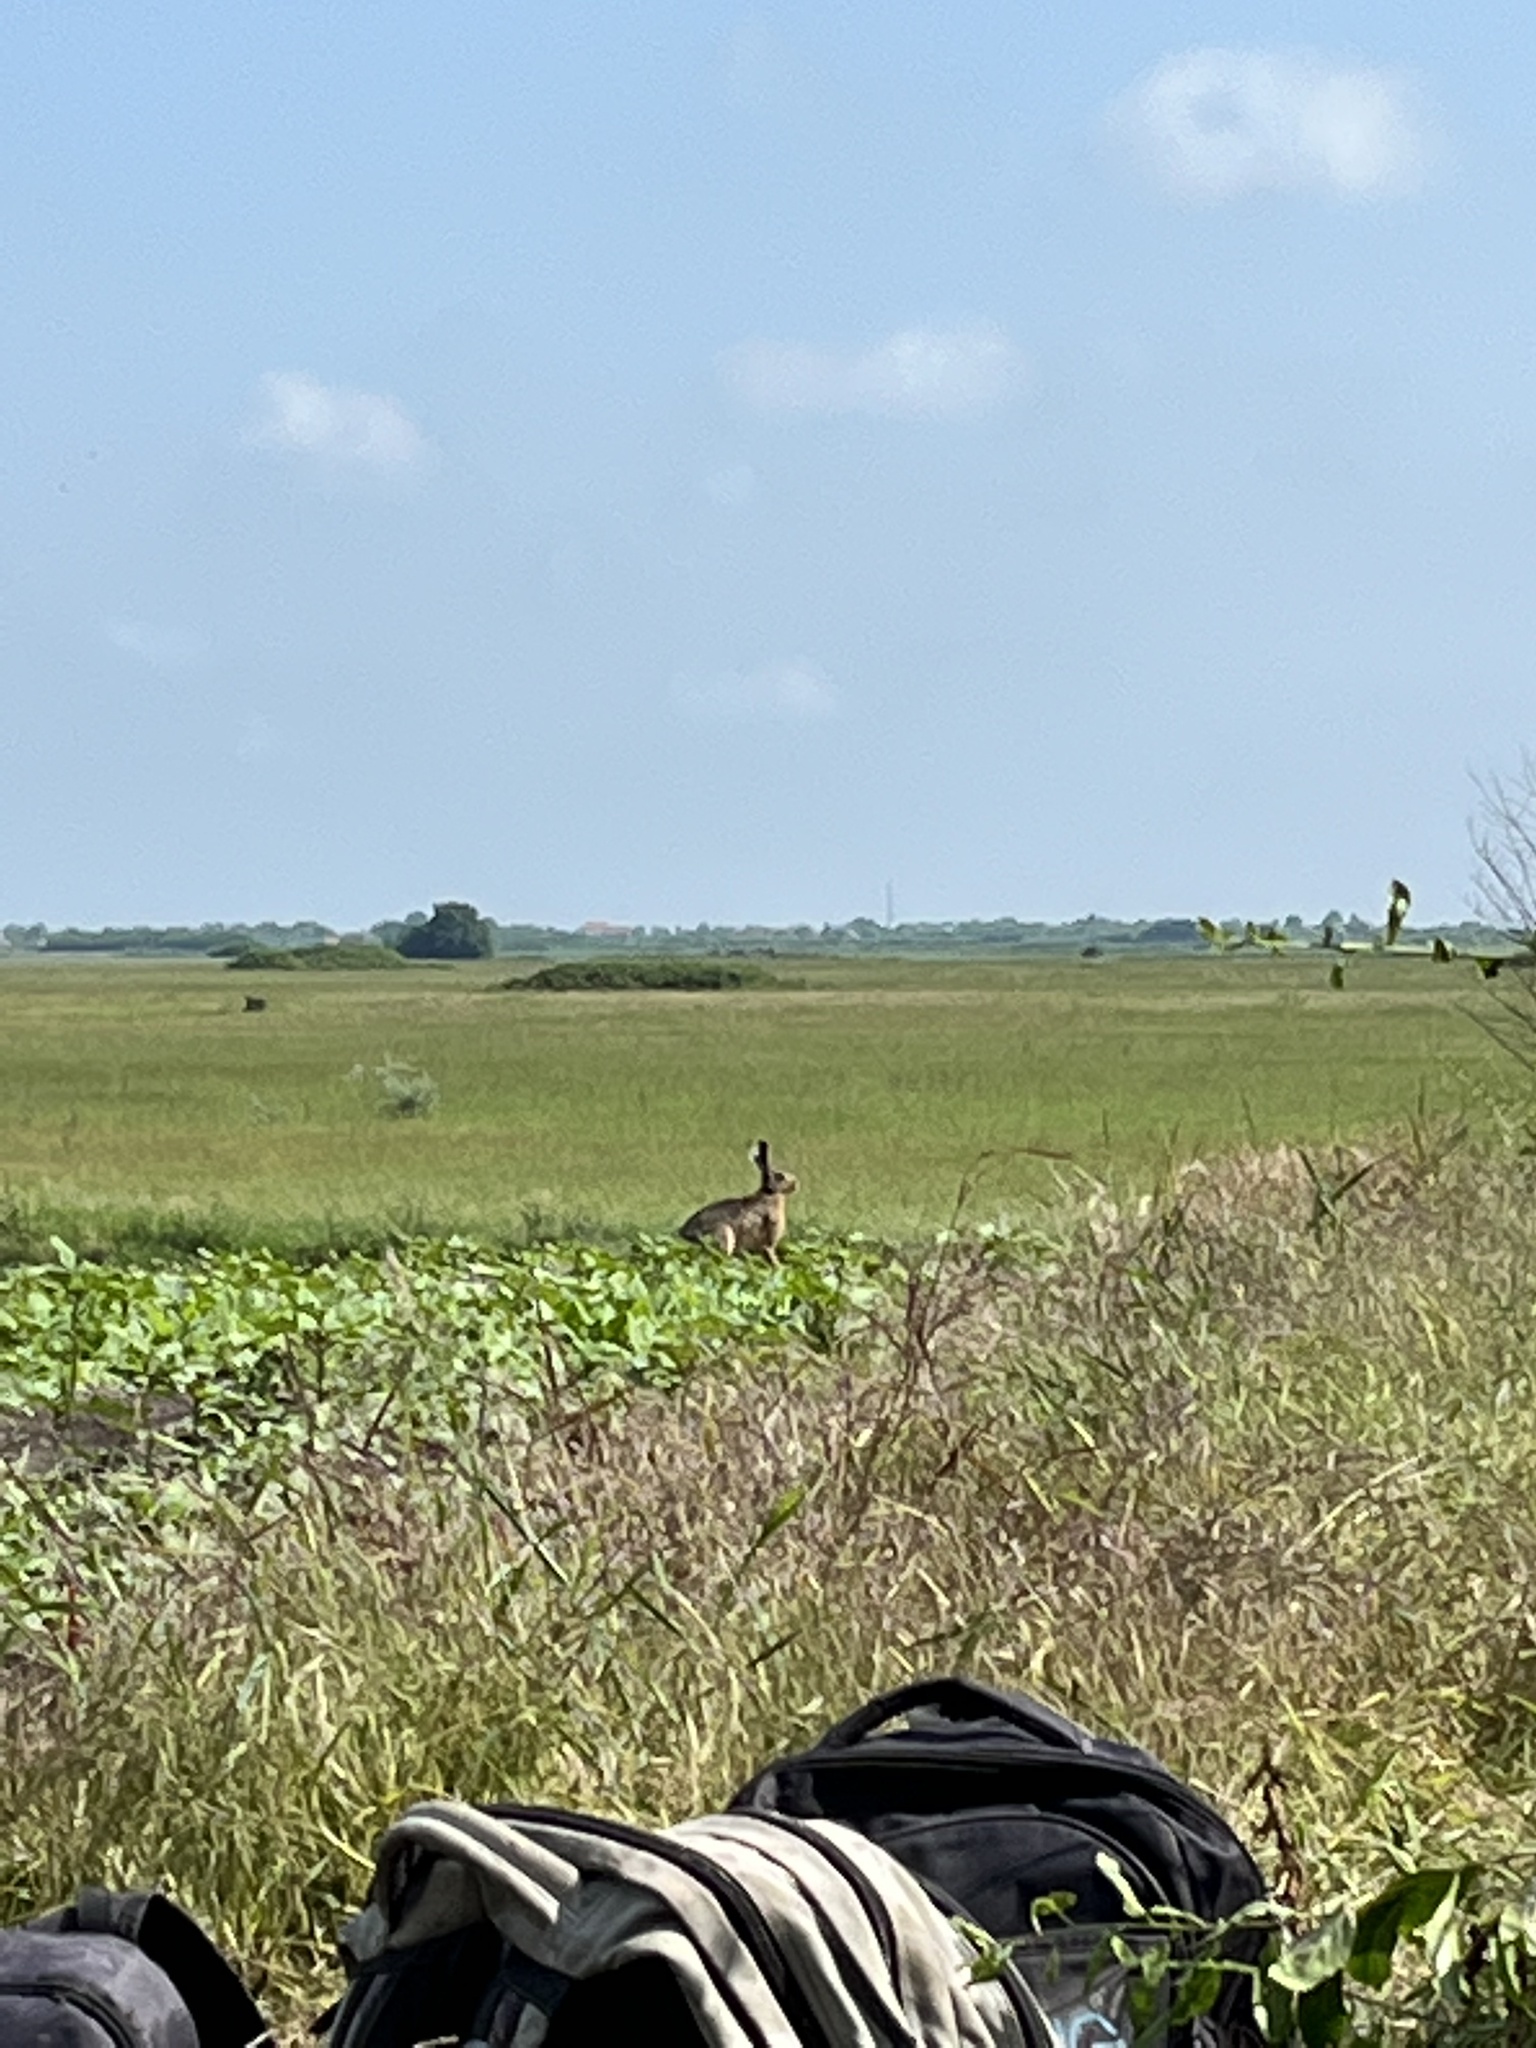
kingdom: Animalia
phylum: Chordata
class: Mammalia
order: Lagomorpha
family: Leporidae
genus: Lepus
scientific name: Lepus europaeus
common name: European hare
